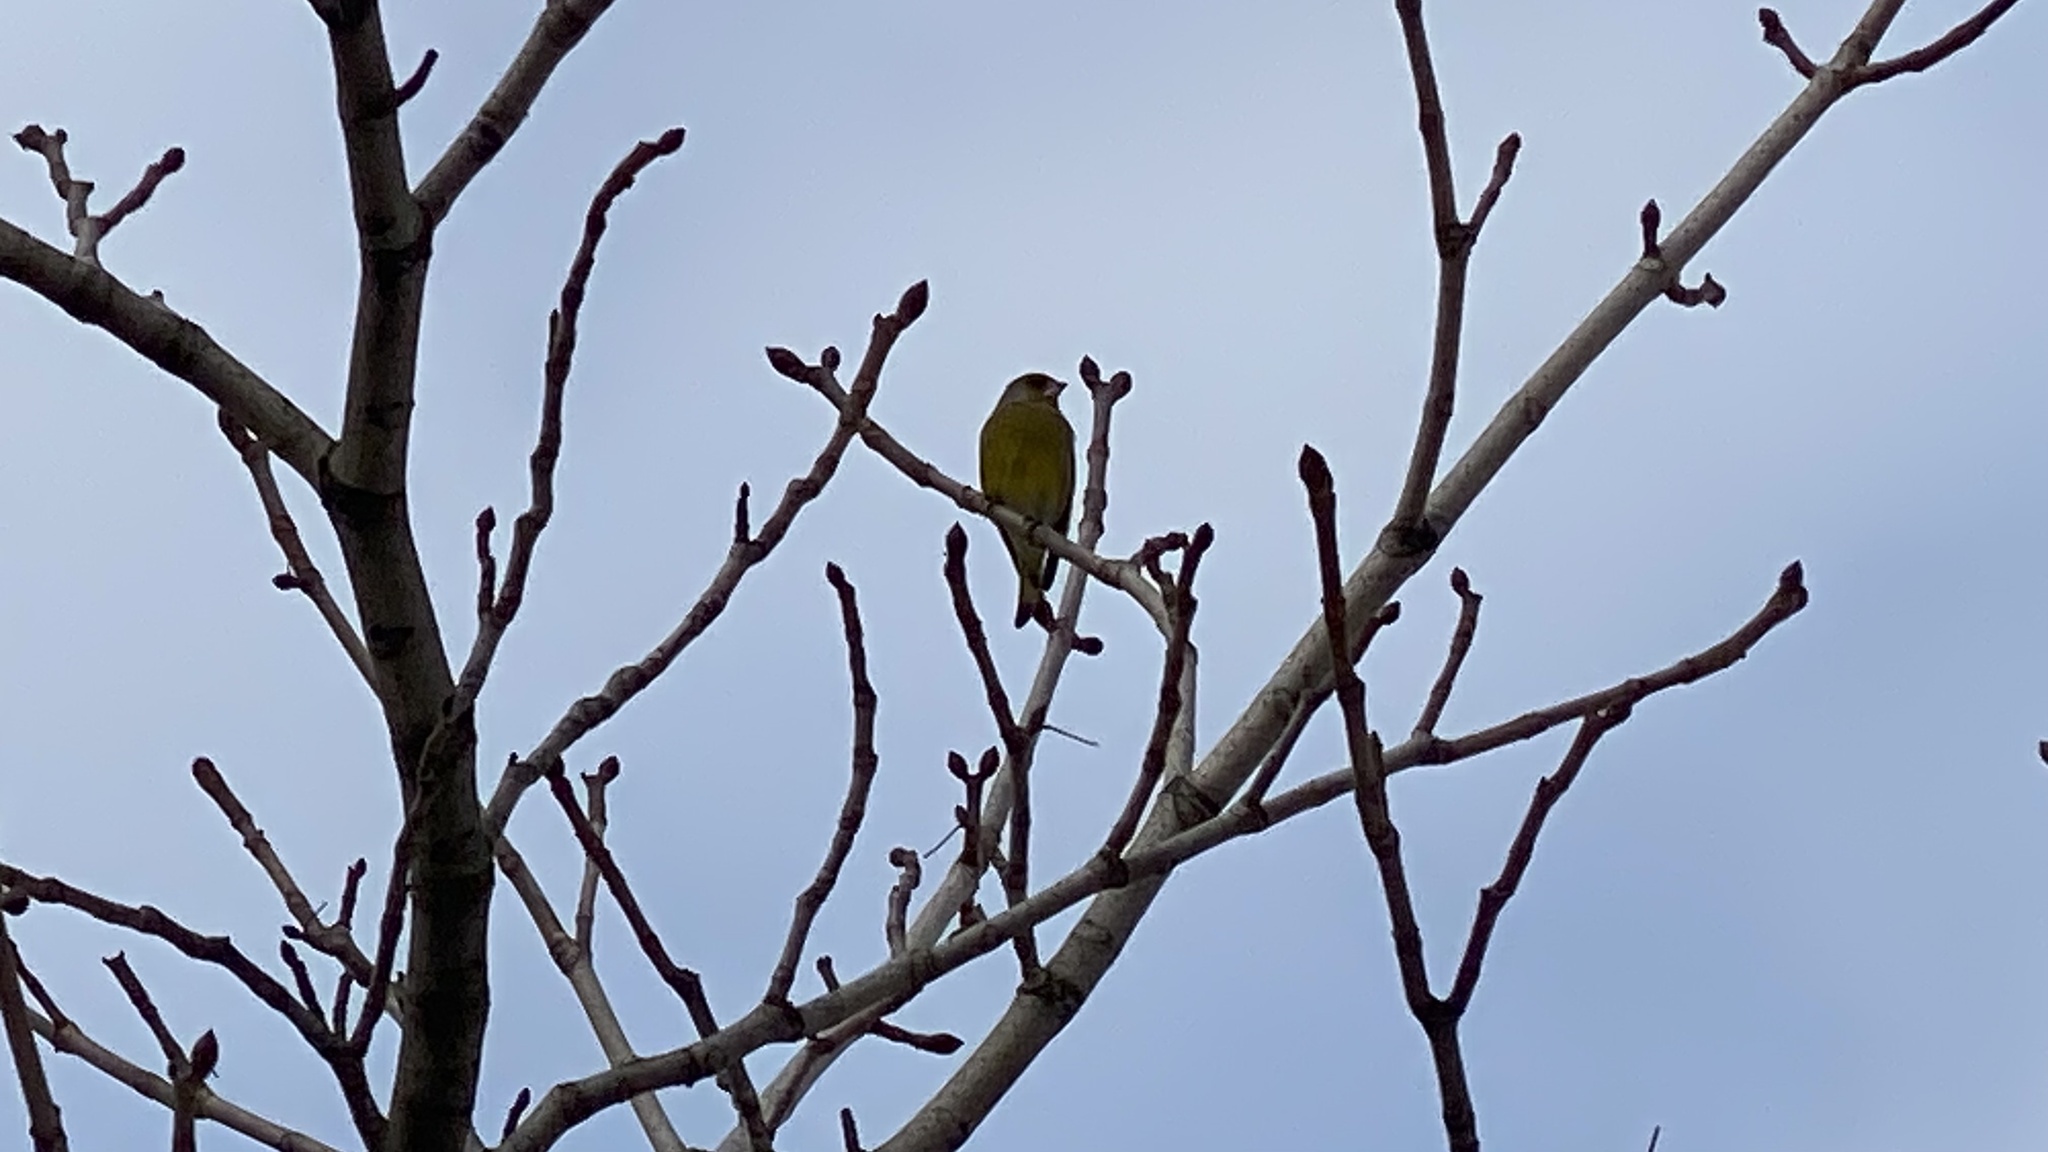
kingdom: Plantae
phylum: Tracheophyta
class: Liliopsida
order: Poales
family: Poaceae
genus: Chloris
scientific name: Chloris chloris
